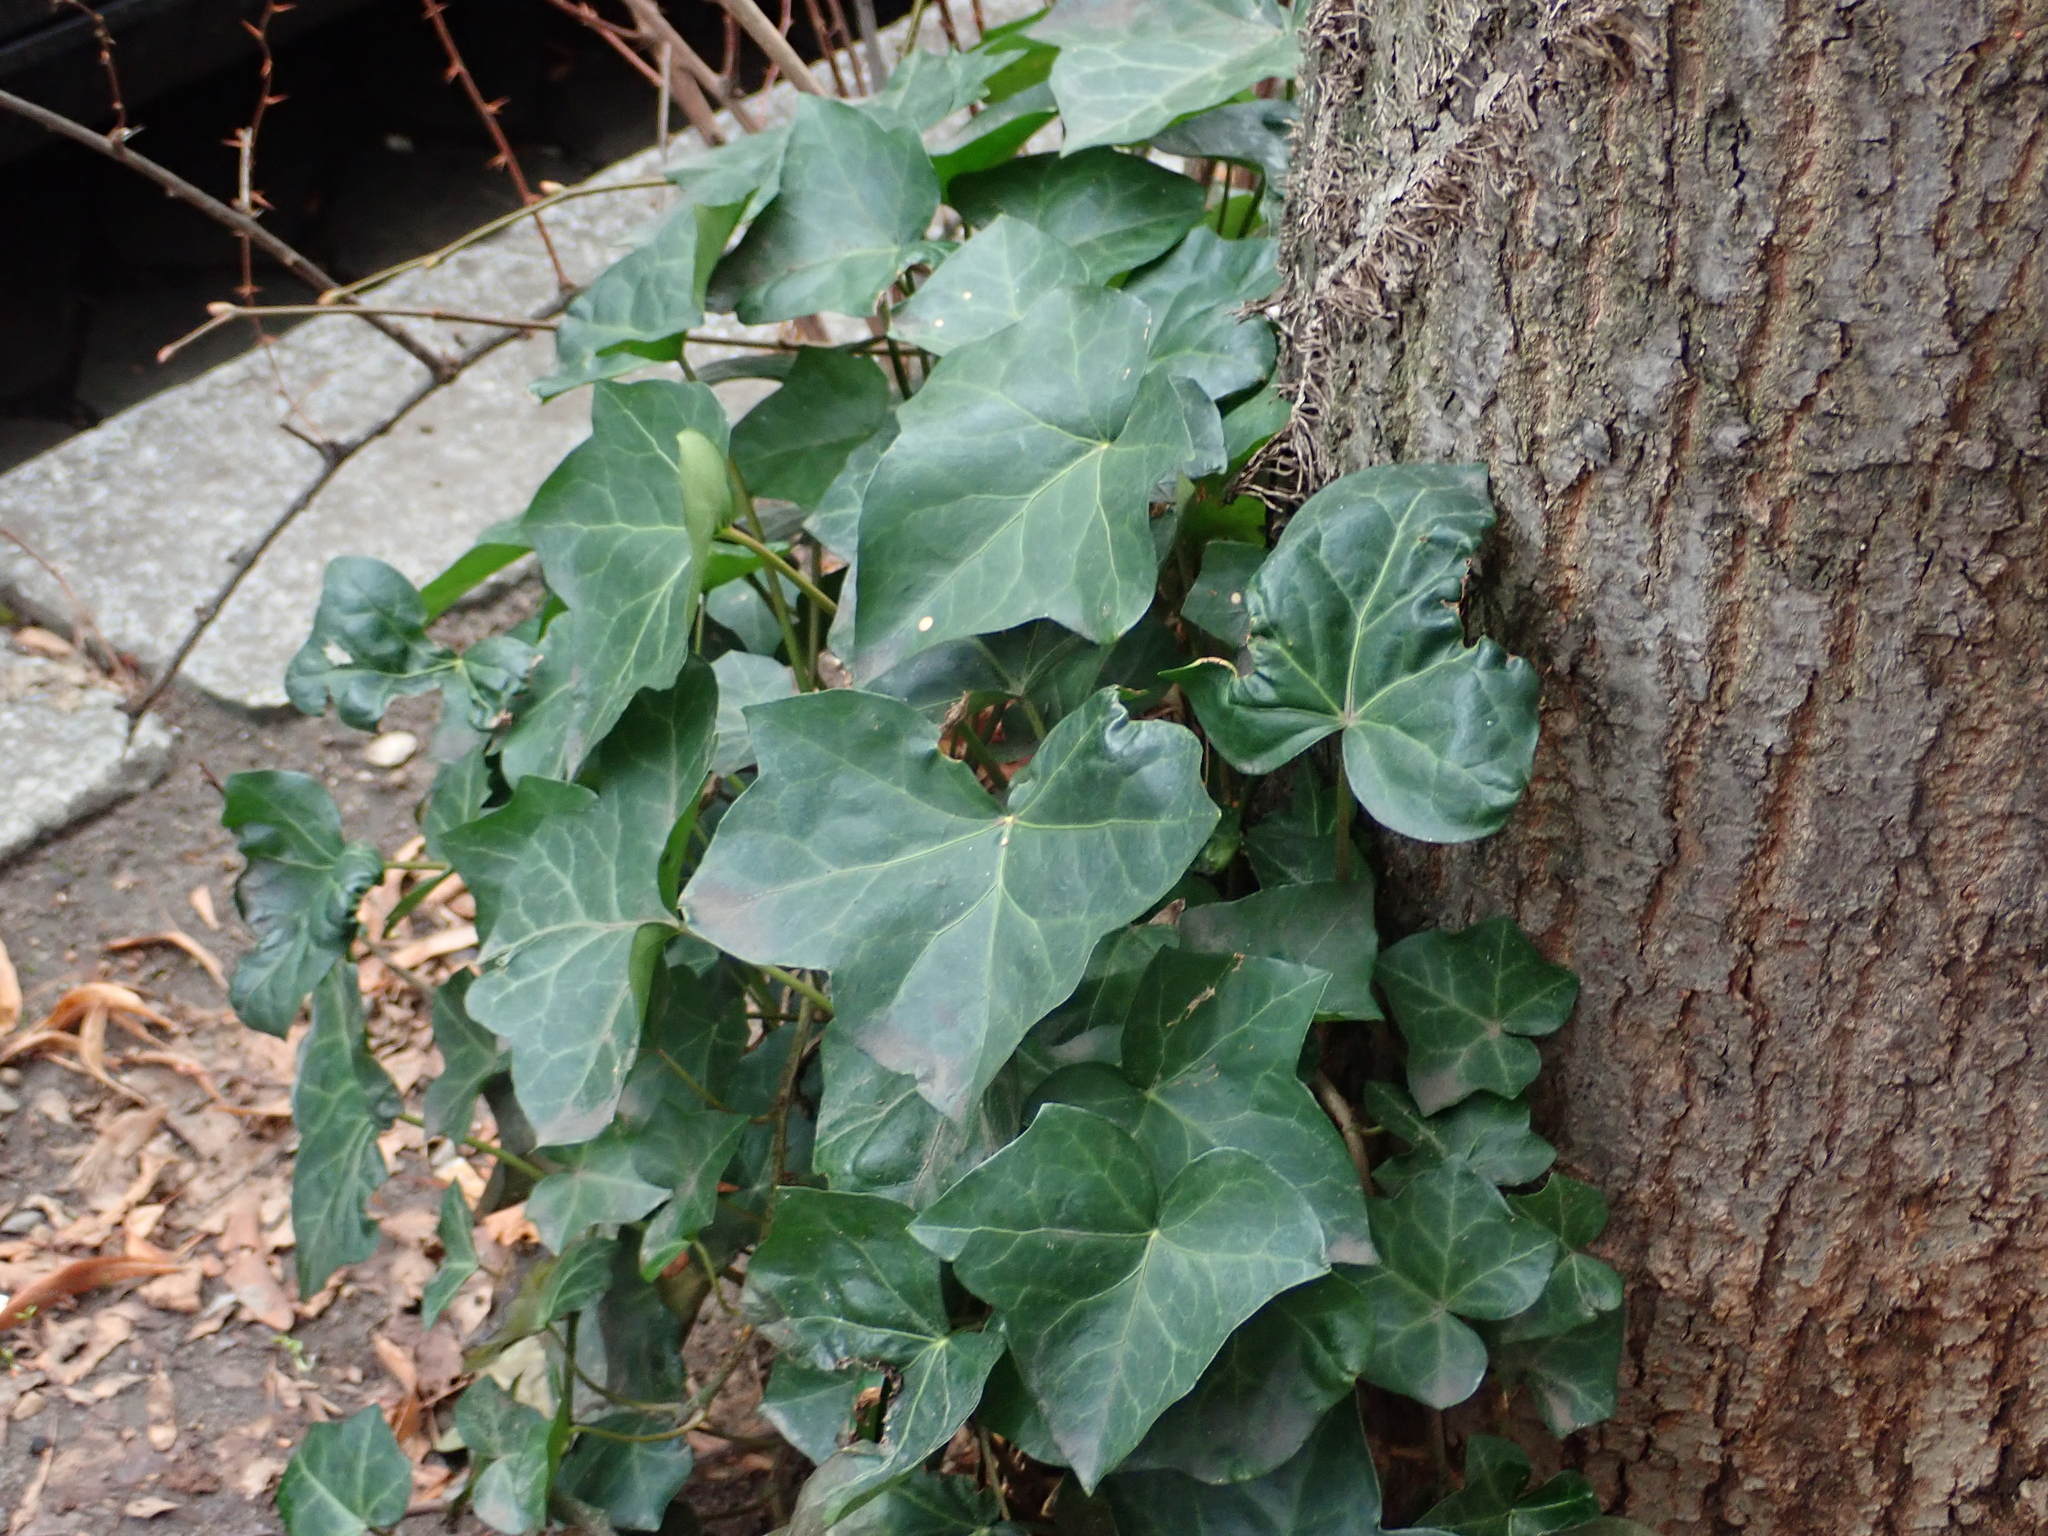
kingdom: Plantae
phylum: Tracheophyta
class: Magnoliopsida
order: Apiales
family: Araliaceae
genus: Hedera
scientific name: Hedera helix
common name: Ivy
